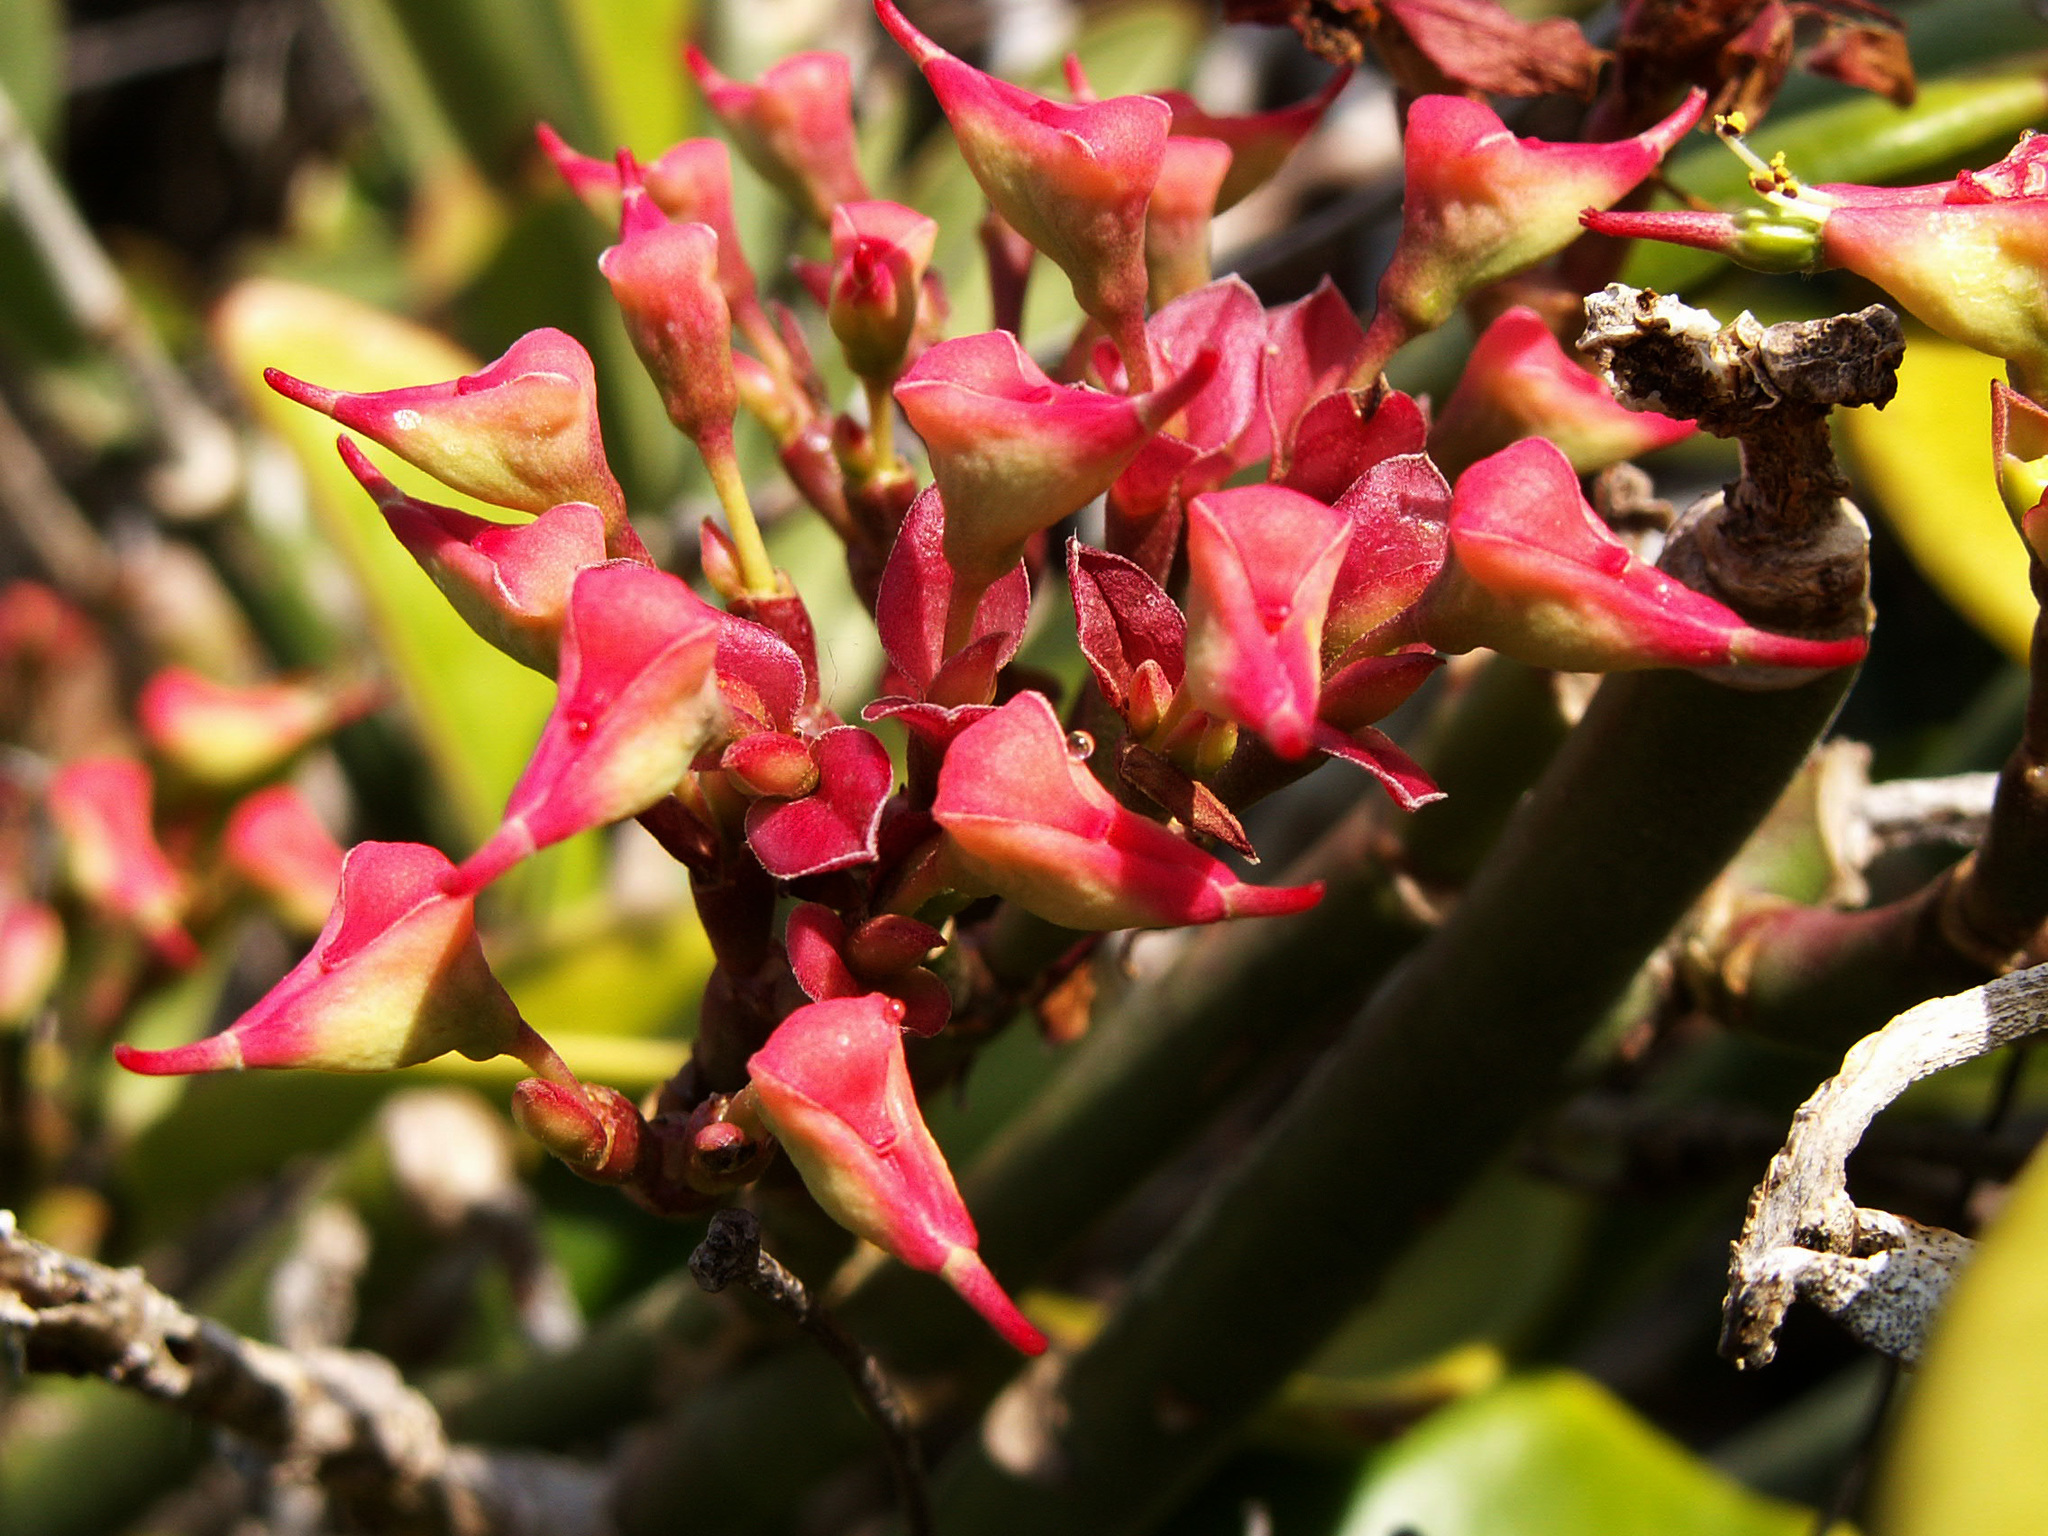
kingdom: Plantae
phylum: Tracheophyta
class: Magnoliopsida
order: Malpighiales
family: Euphorbiaceae
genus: Euphorbia
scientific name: Euphorbia tithymaloides
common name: Slipperplant
